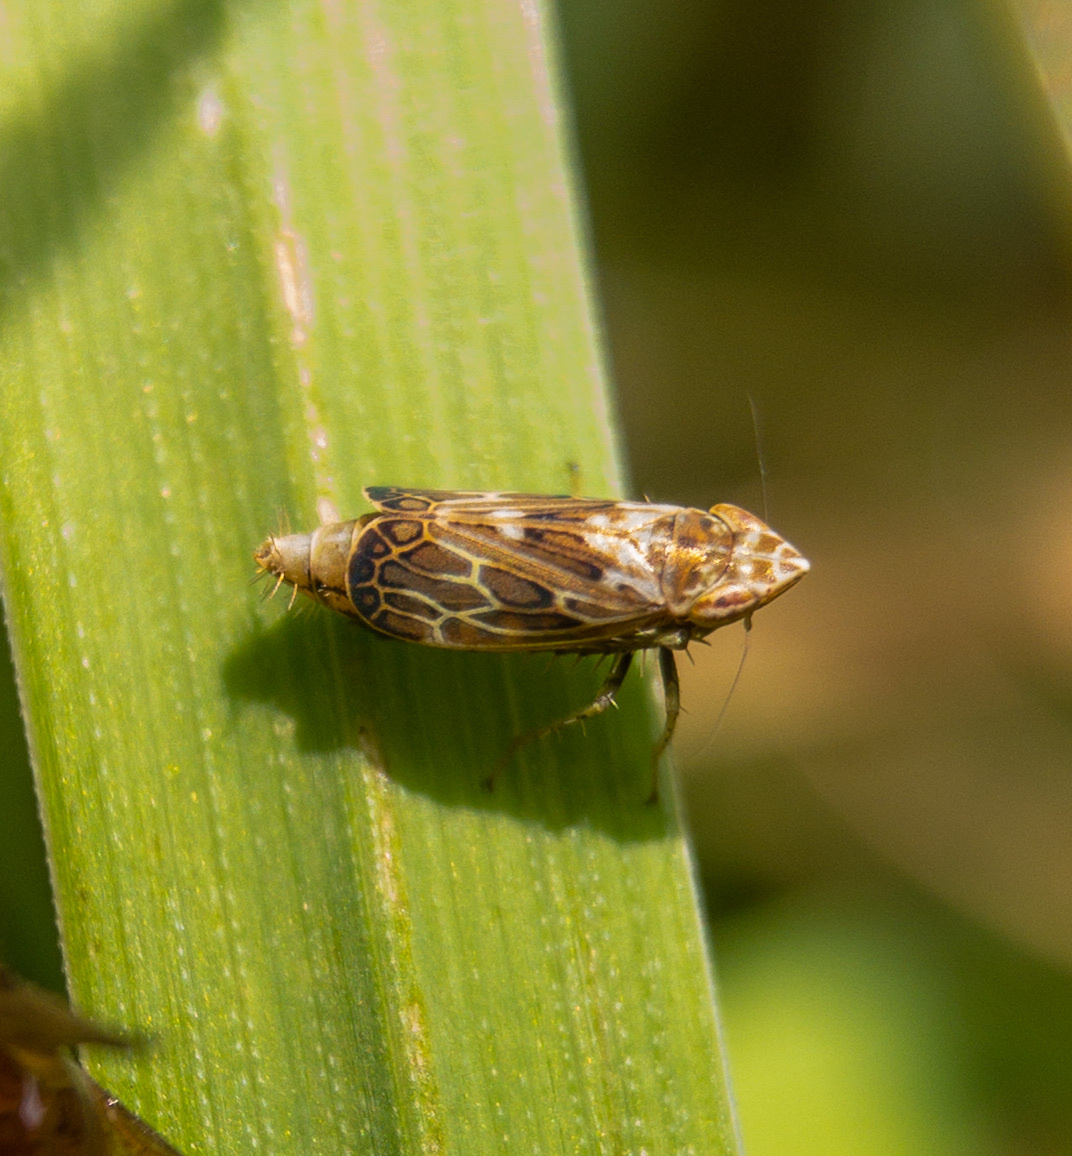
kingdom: Animalia
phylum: Arthropoda
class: Insecta
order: Hemiptera
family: Cicadellidae
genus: Latalus
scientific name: Latalus sayii
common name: Say’s leafhopper
